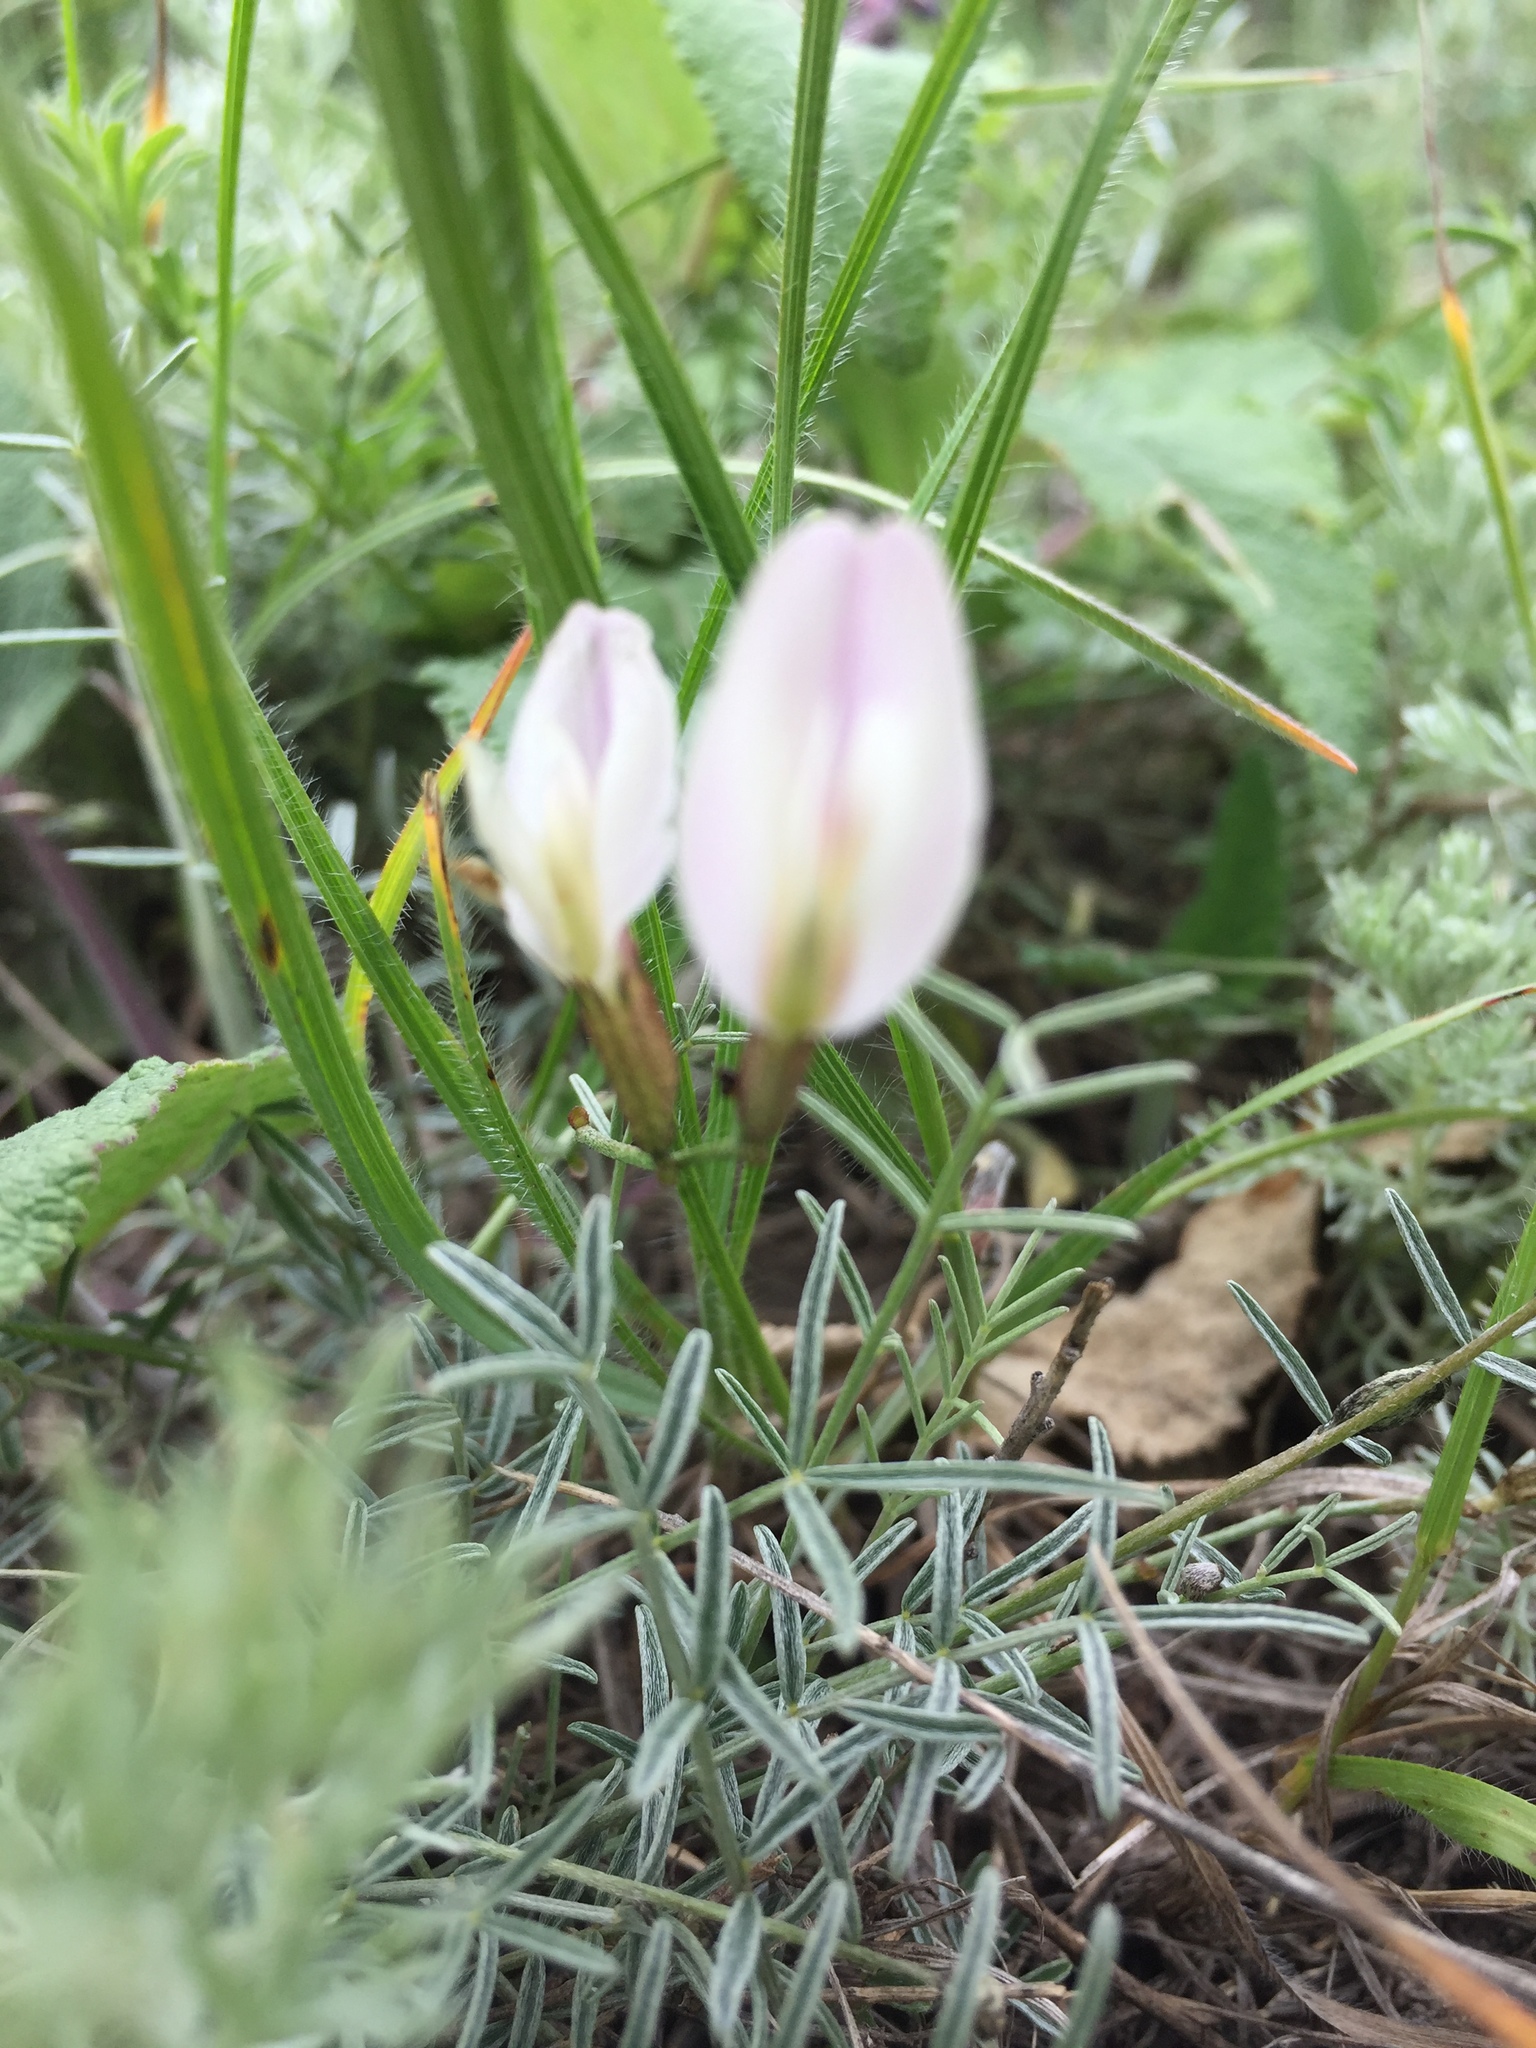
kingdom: Plantae
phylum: Tracheophyta
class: Magnoliopsida
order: Fabales
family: Fabaceae
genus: Astragalus
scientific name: Astragalus ucrainicus
